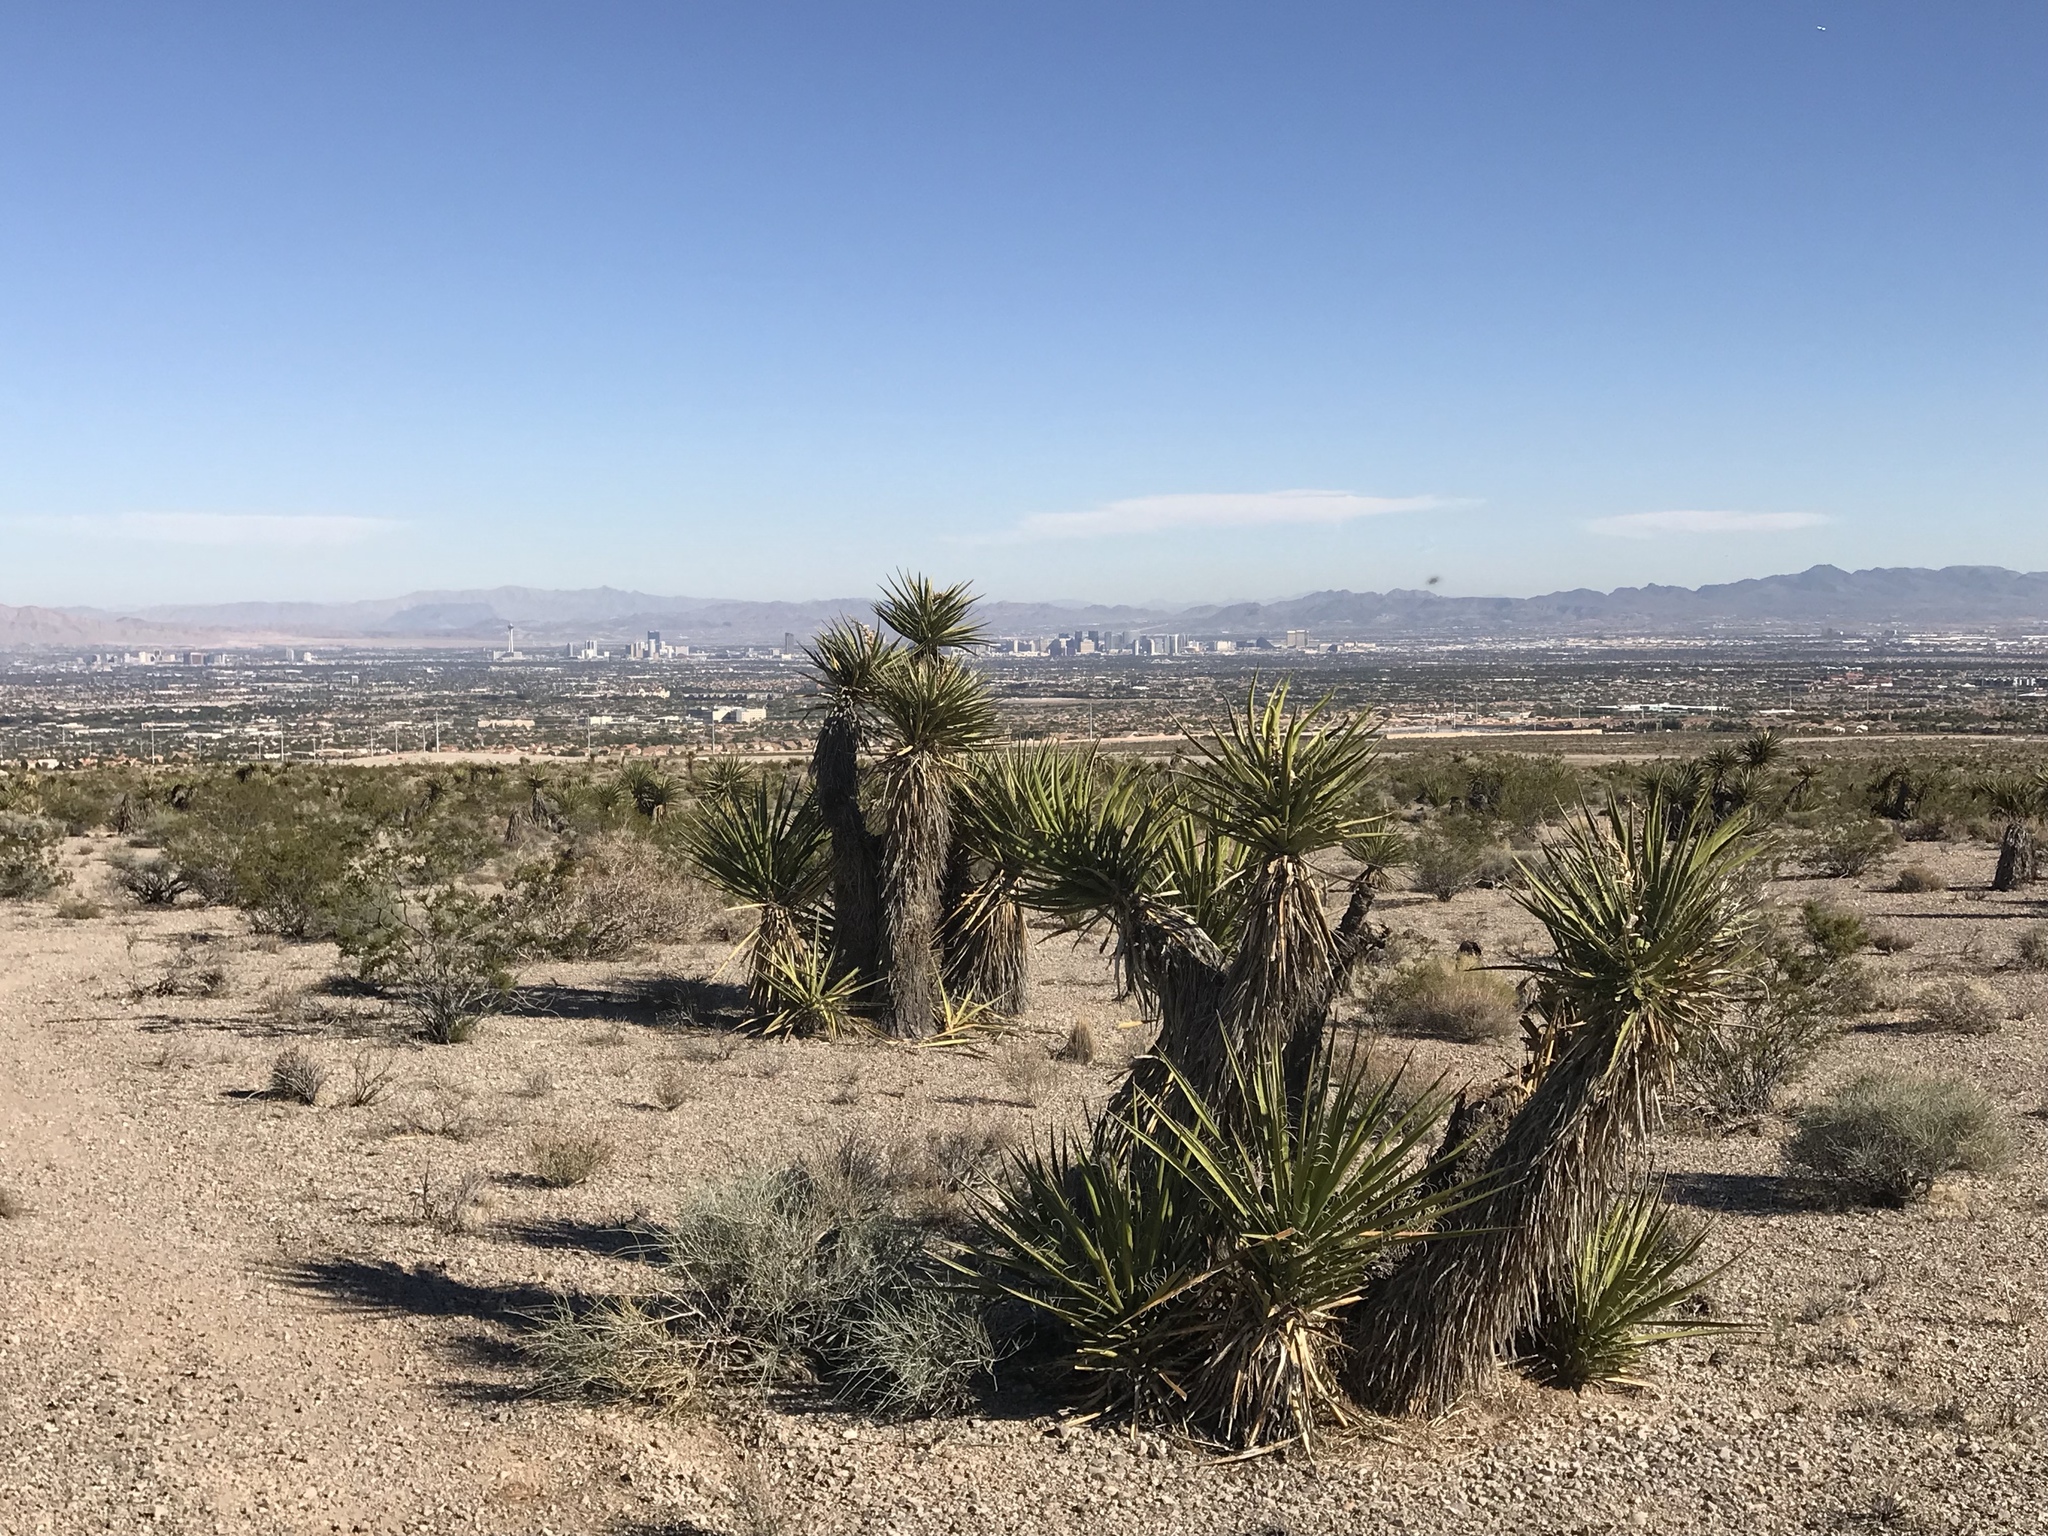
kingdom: Plantae
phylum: Tracheophyta
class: Liliopsida
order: Asparagales
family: Asparagaceae
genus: Yucca
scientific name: Yucca schidigera
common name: Mojave yucca
